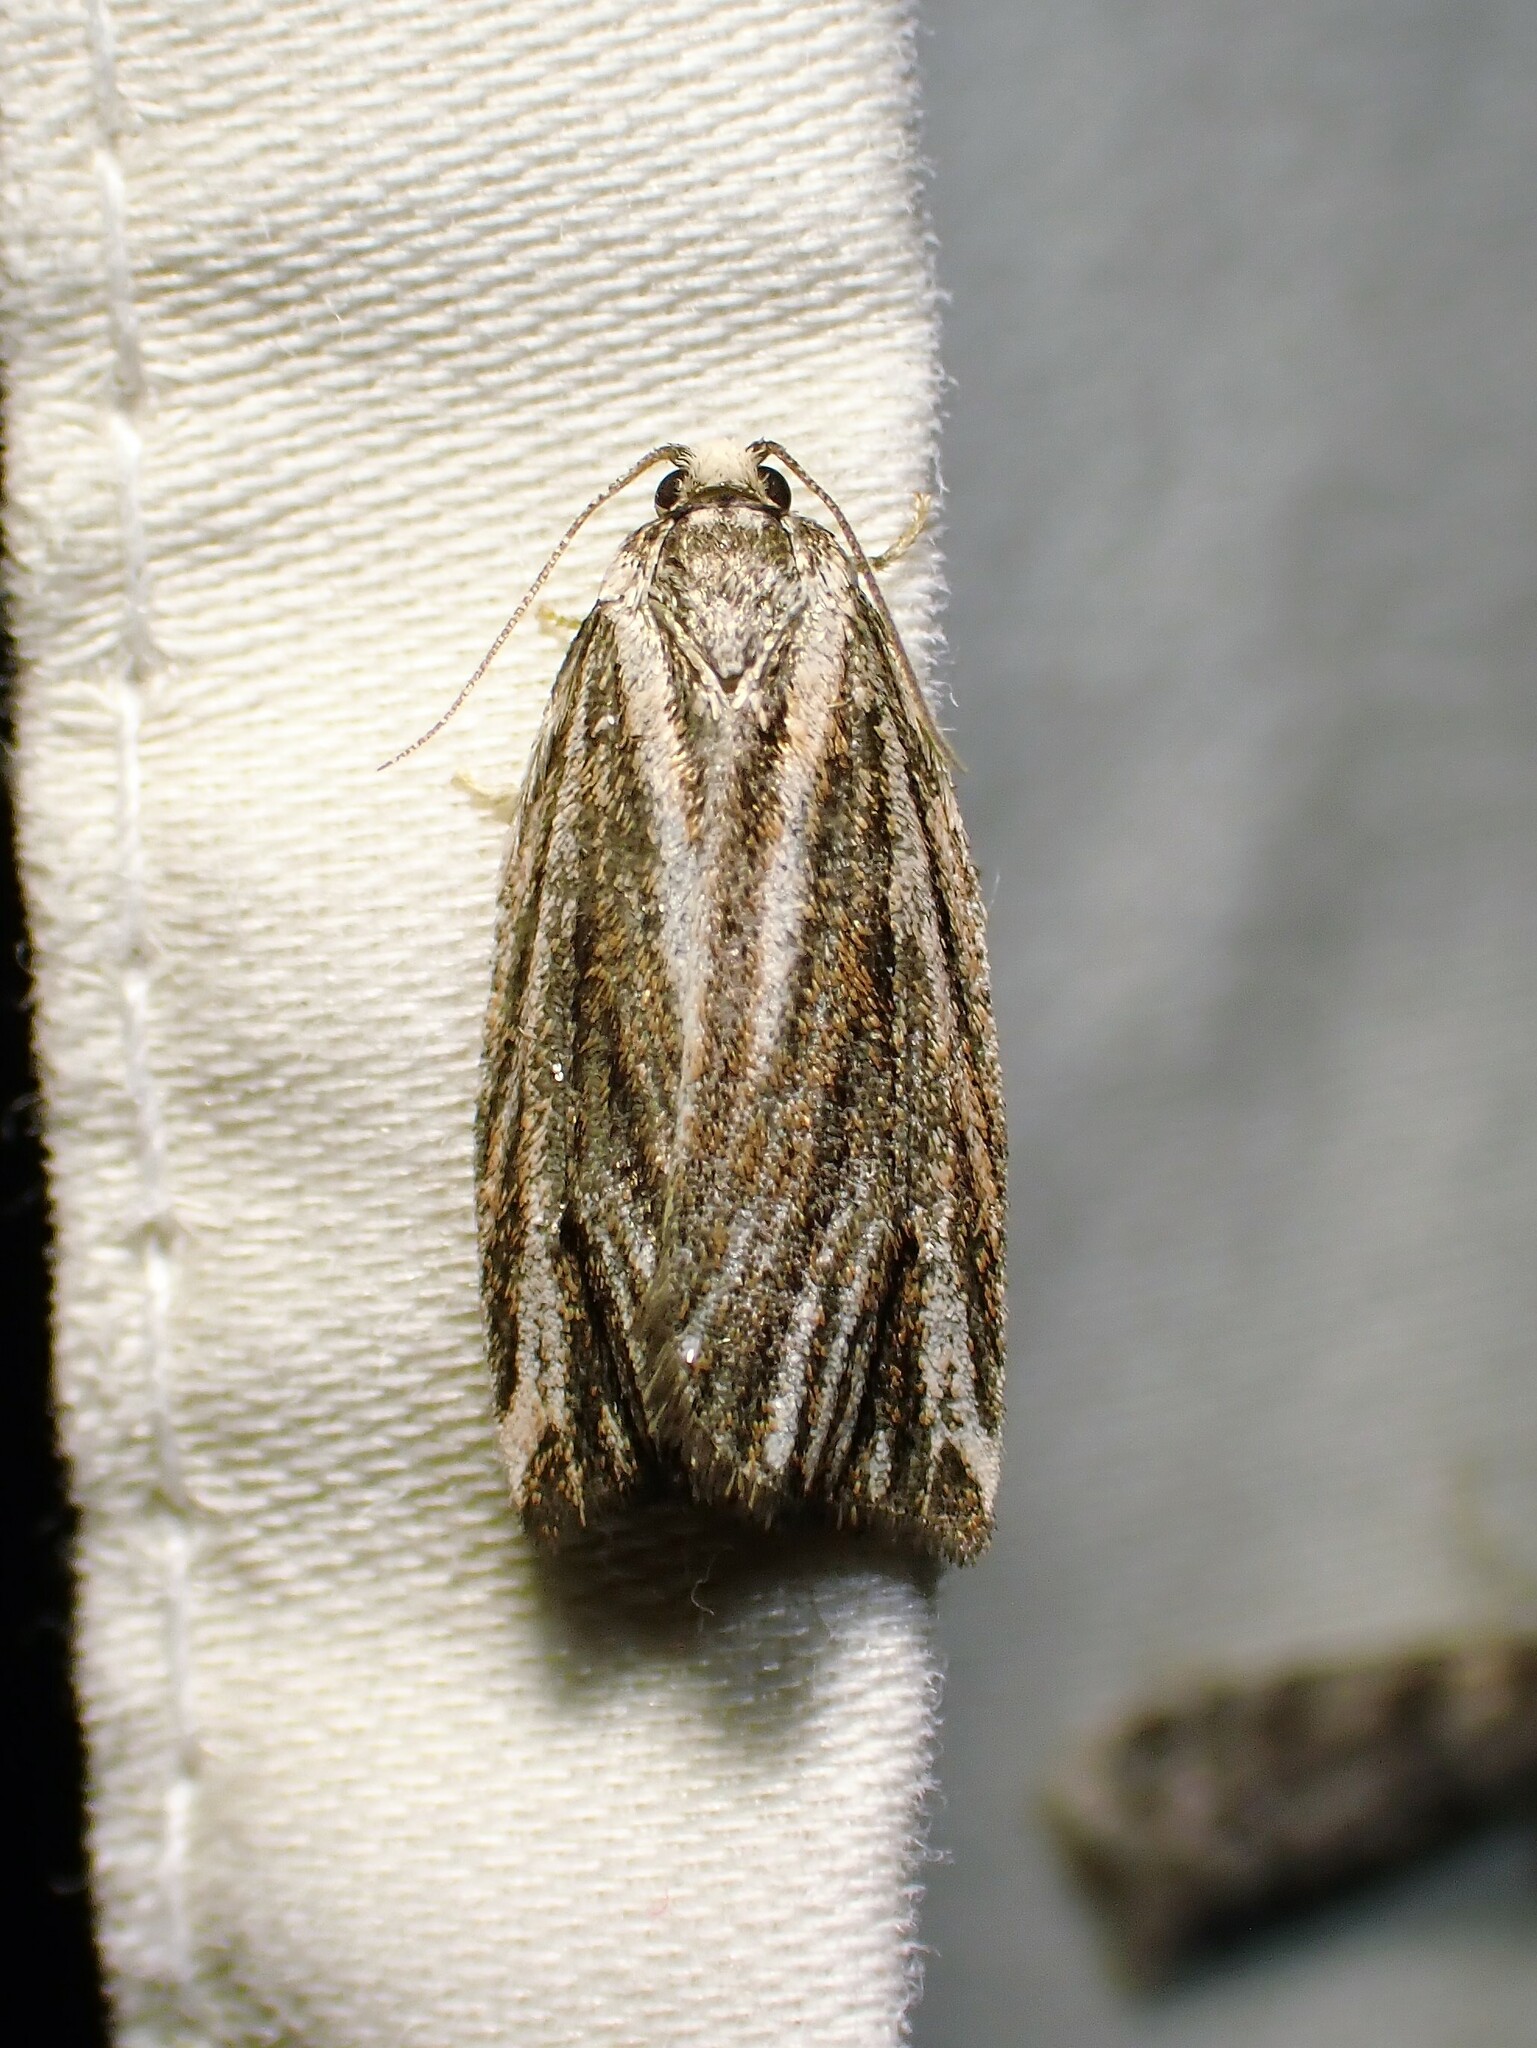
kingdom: Animalia
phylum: Arthropoda
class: Insecta
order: Lepidoptera
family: Tortricidae
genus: Archips
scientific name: Archips strianus
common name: Striated tortrix moth
